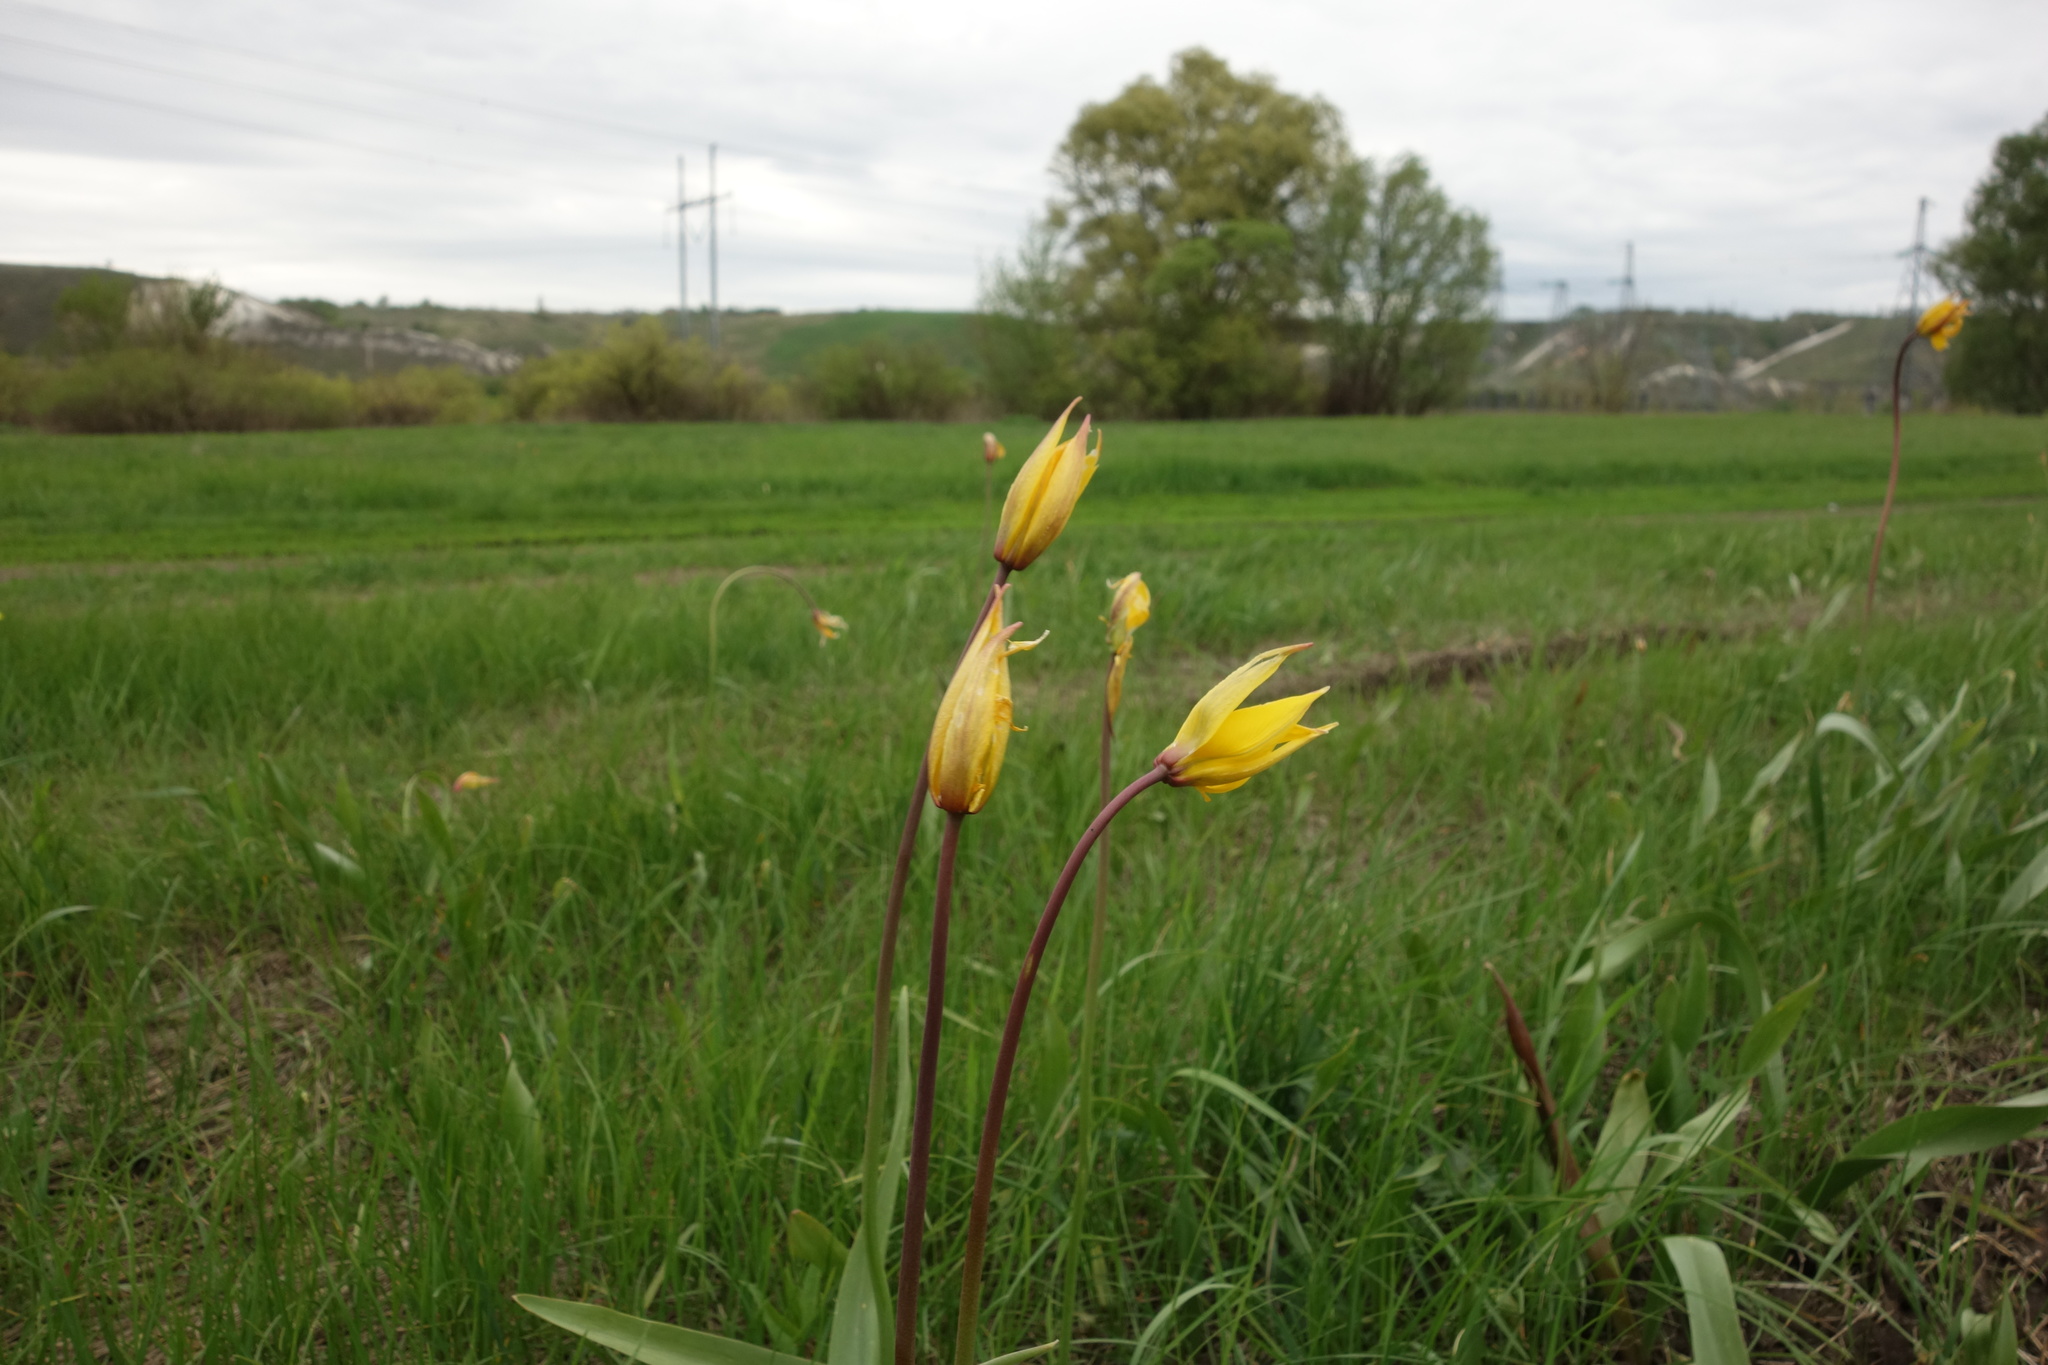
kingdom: Plantae
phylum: Tracheophyta
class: Liliopsida
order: Liliales
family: Liliaceae
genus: Tulipa
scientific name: Tulipa sylvestris
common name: Wild tulip
